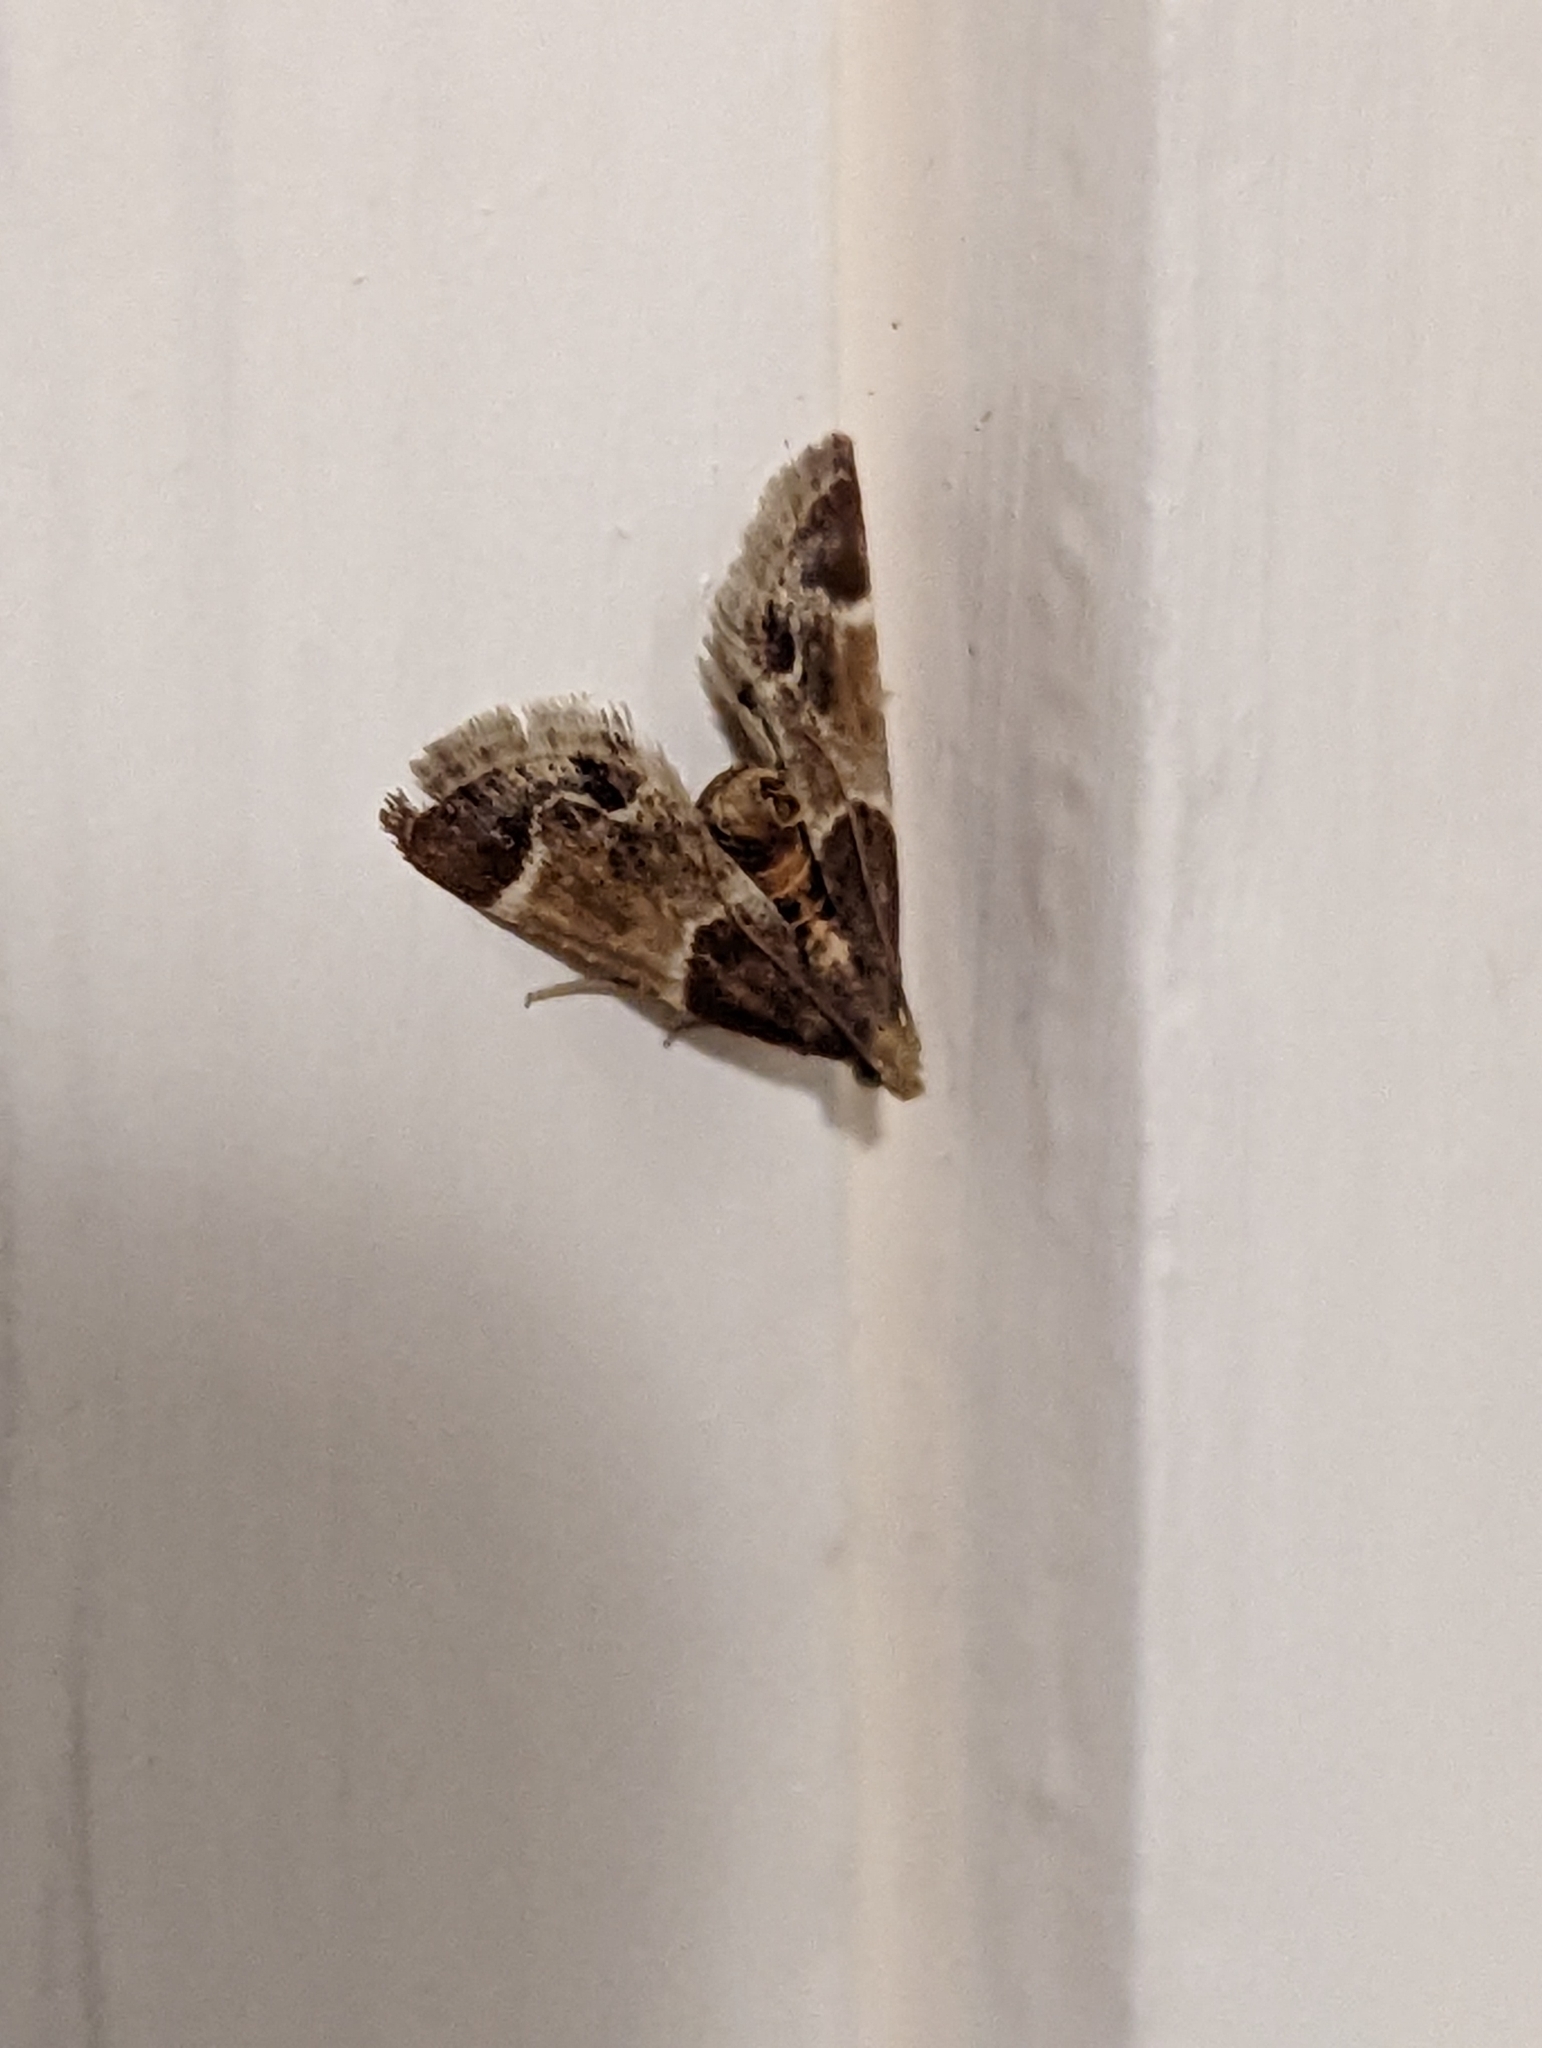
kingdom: Animalia
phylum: Arthropoda
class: Insecta
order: Lepidoptera
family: Pyralidae
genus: Pyralis
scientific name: Pyralis farinalis
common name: Meal moth
